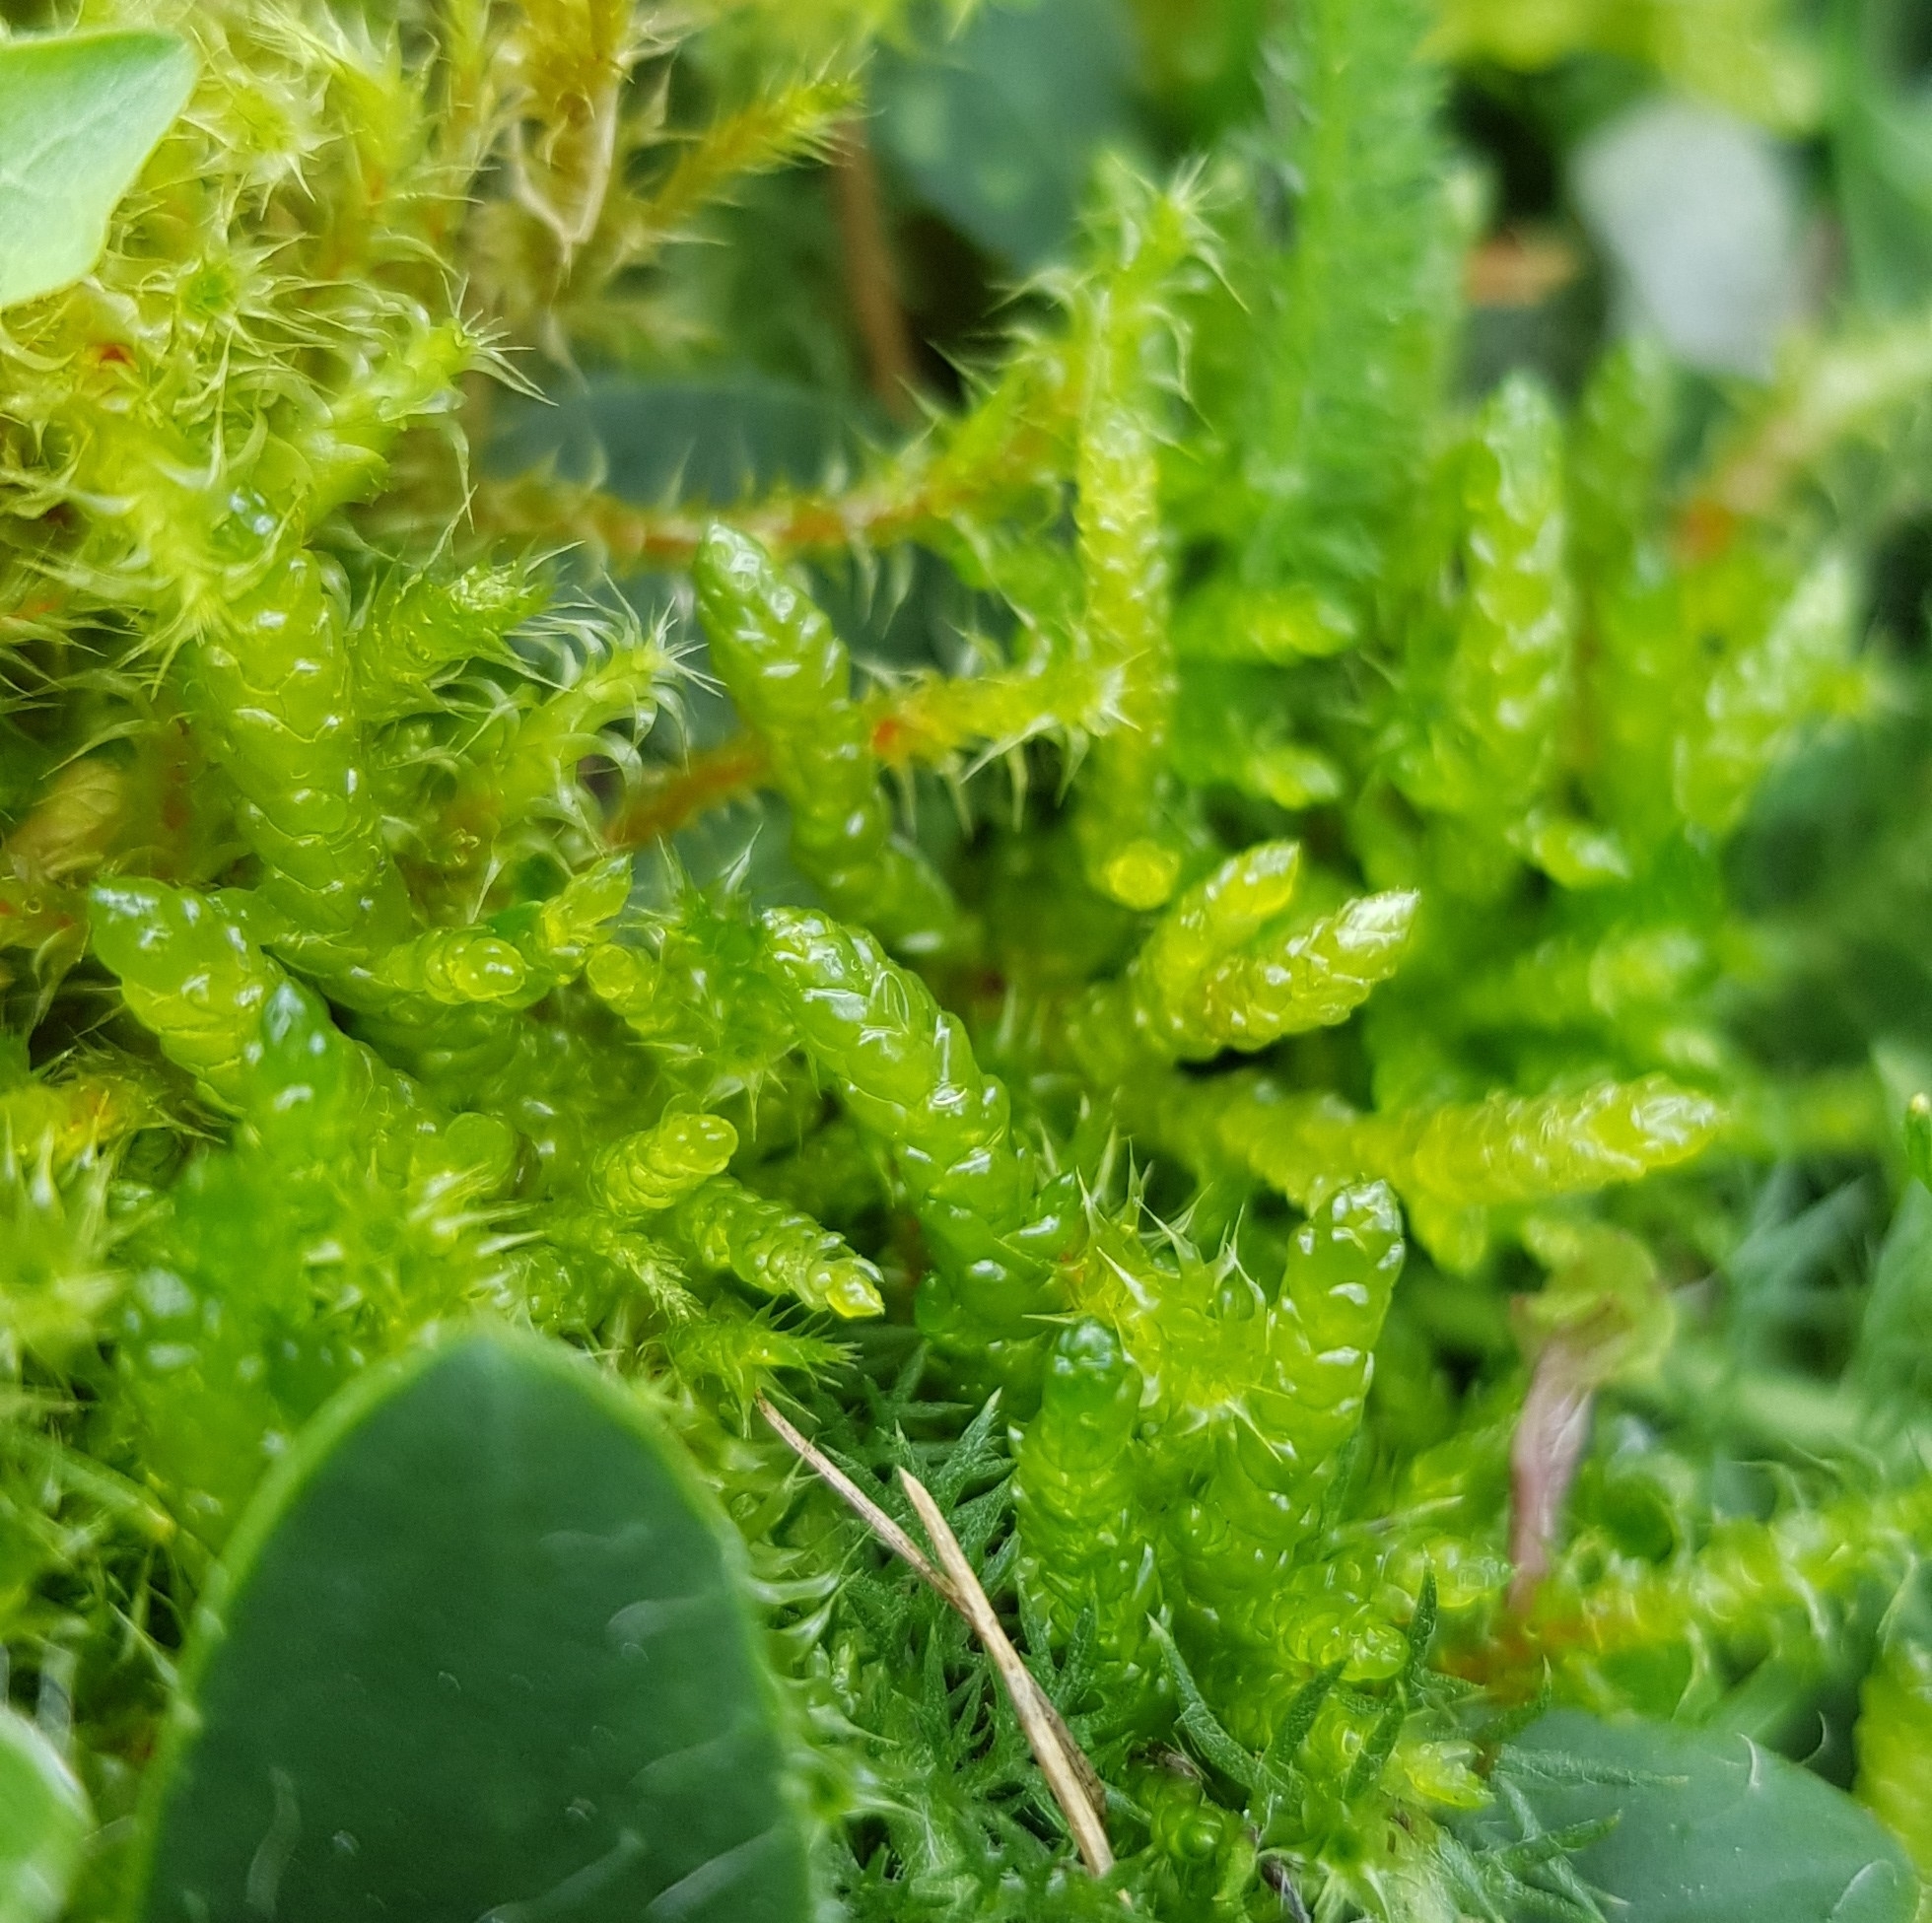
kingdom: Plantae
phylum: Bryophyta
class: Bryopsida
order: Hypnales
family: Brachytheciaceae
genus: Pseudoscleropodium
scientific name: Pseudoscleropodium purum
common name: Neat feather-moss
